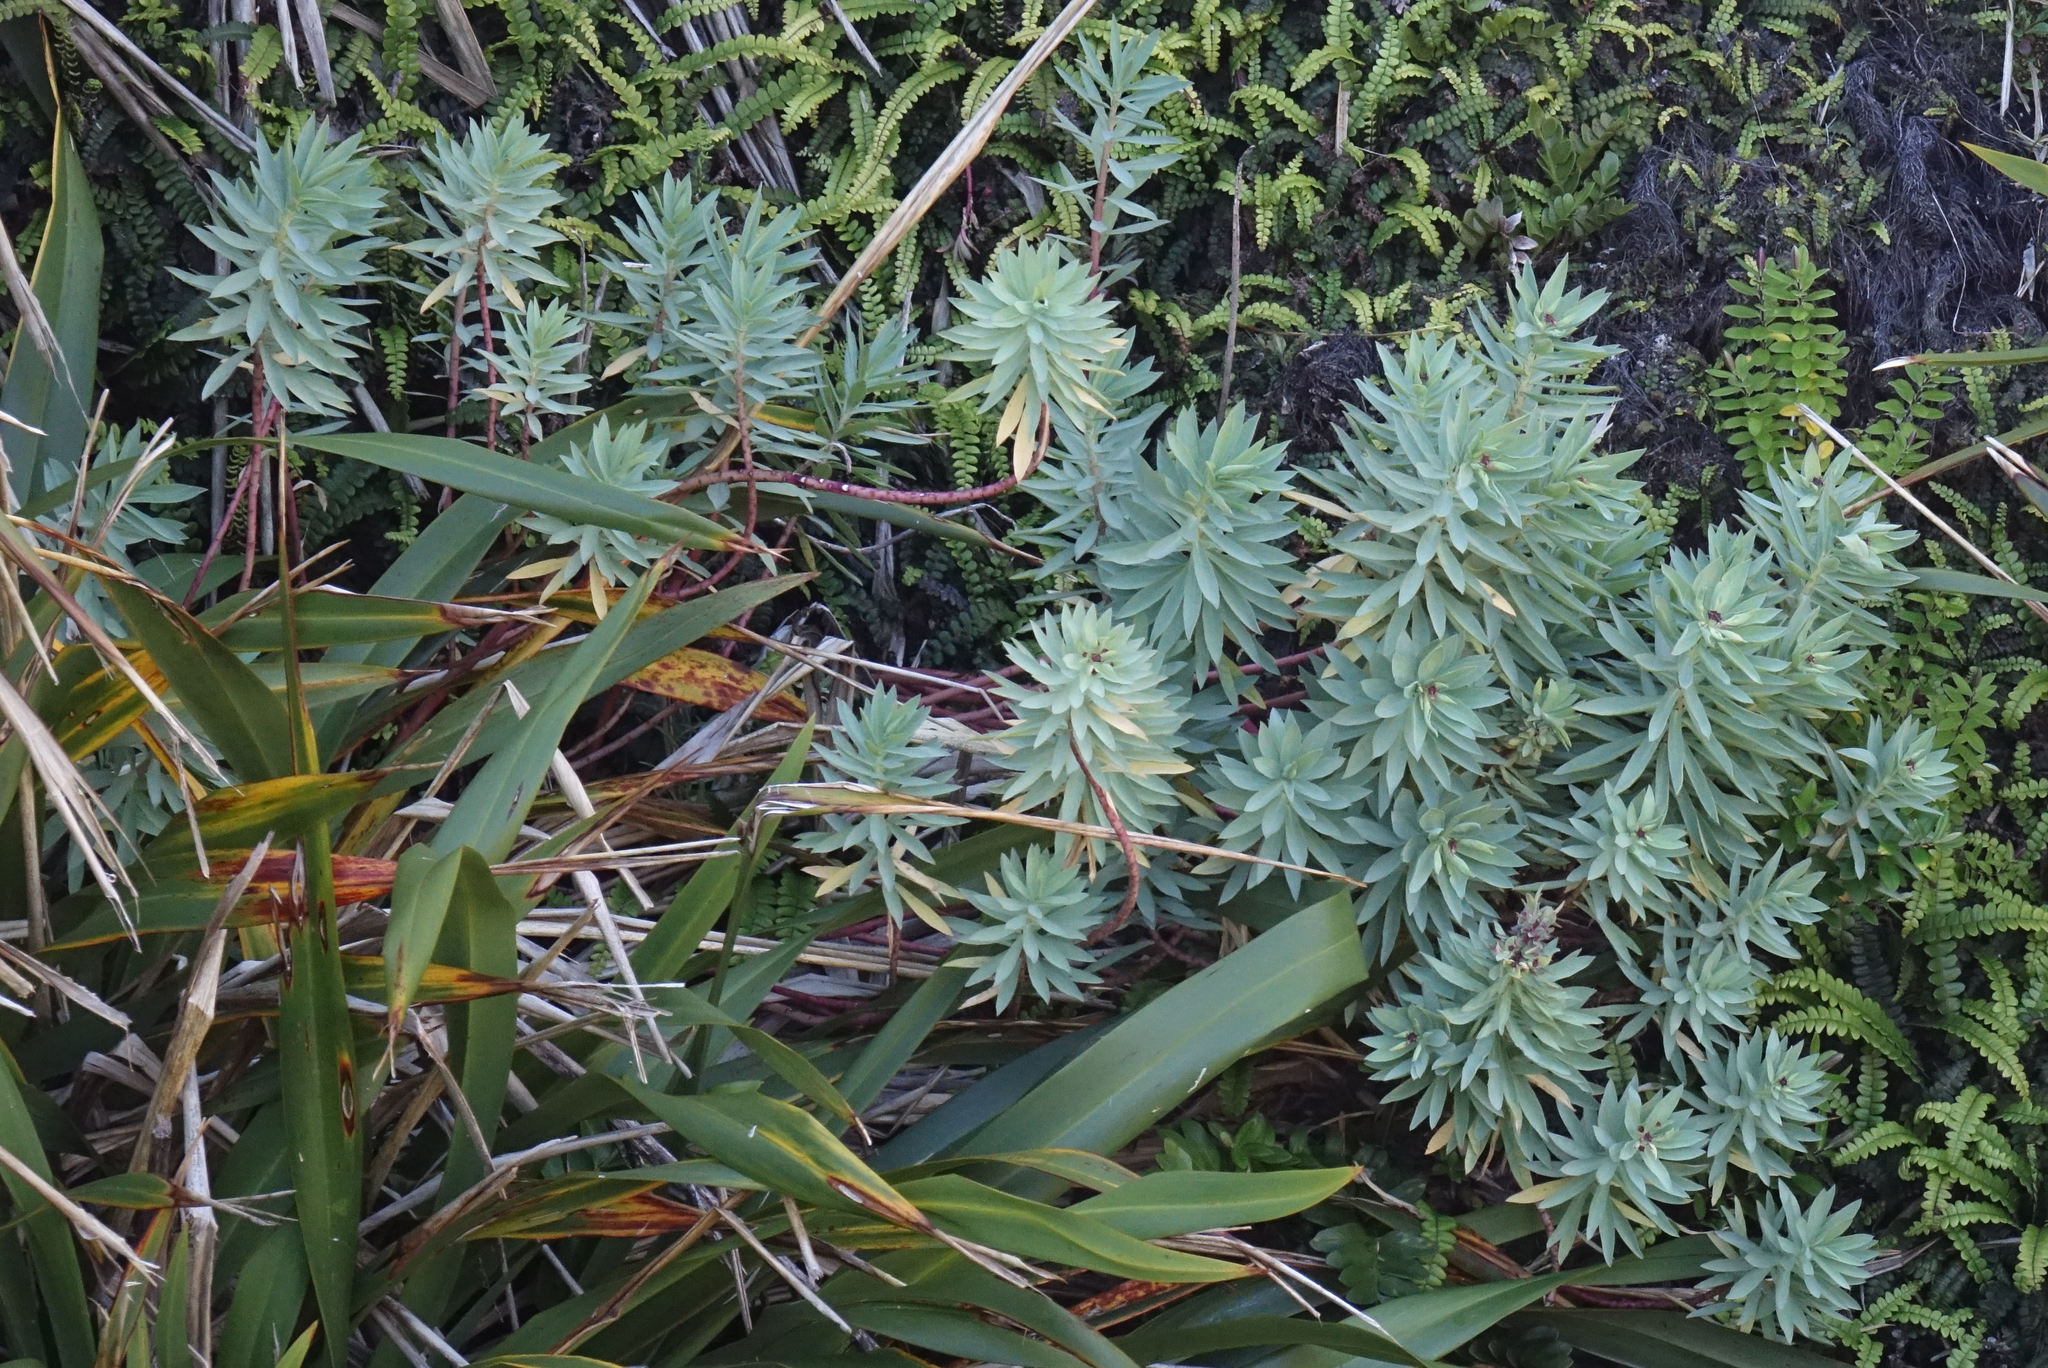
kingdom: Plantae
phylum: Tracheophyta
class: Magnoliopsida
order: Malpighiales
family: Euphorbiaceae
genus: Euphorbia
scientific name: Euphorbia glauca
